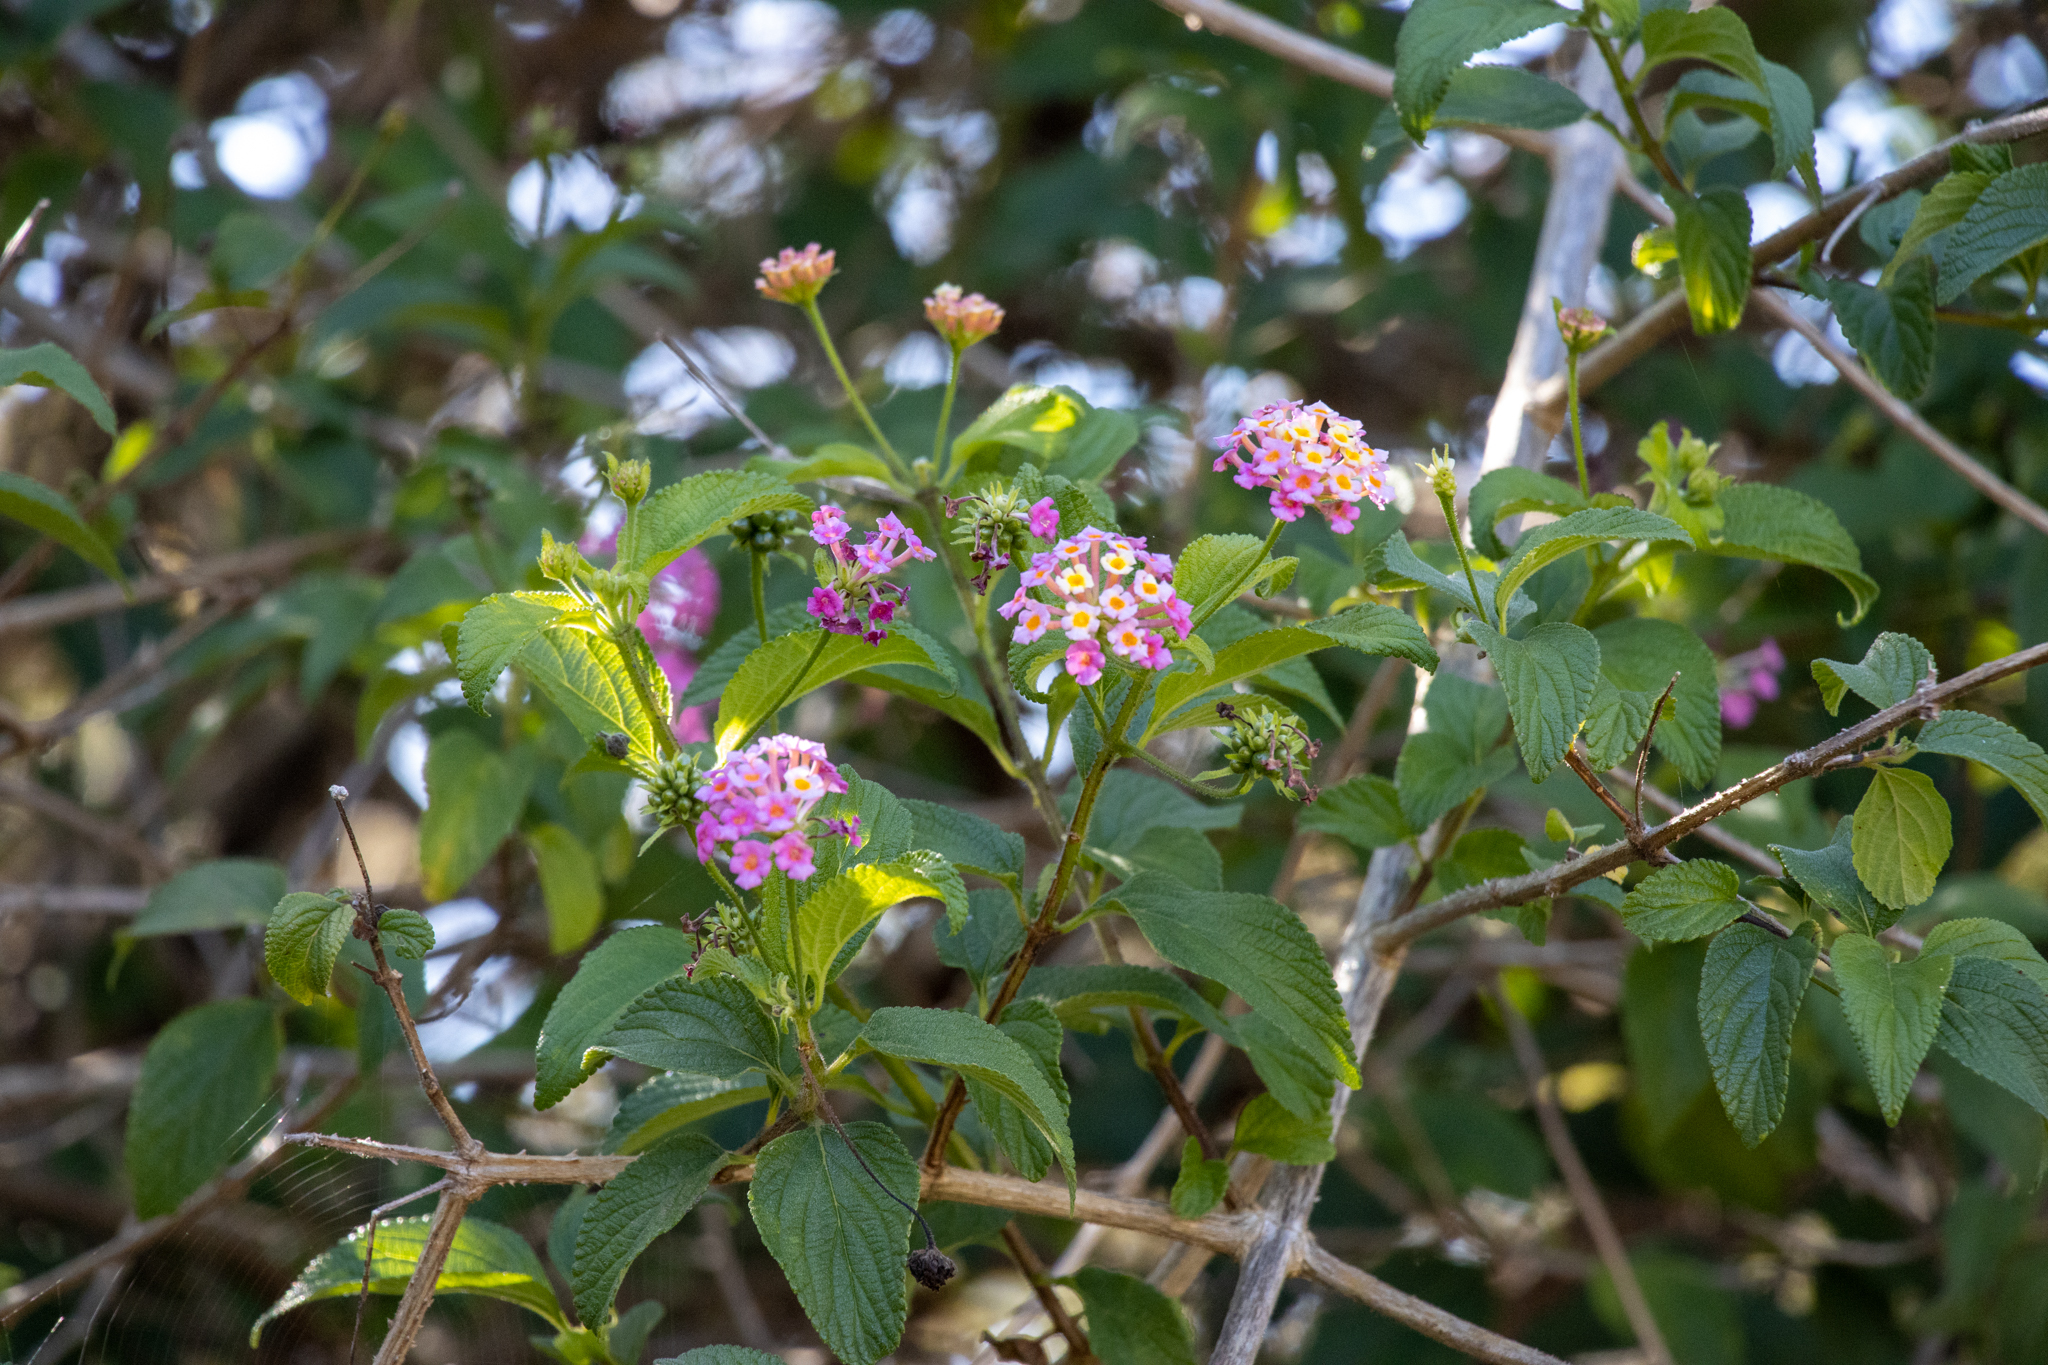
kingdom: Plantae
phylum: Tracheophyta
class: Magnoliopsida
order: Lamiales
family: Verbenaceae
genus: Lantana
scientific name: Lantana camara
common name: Lantana
